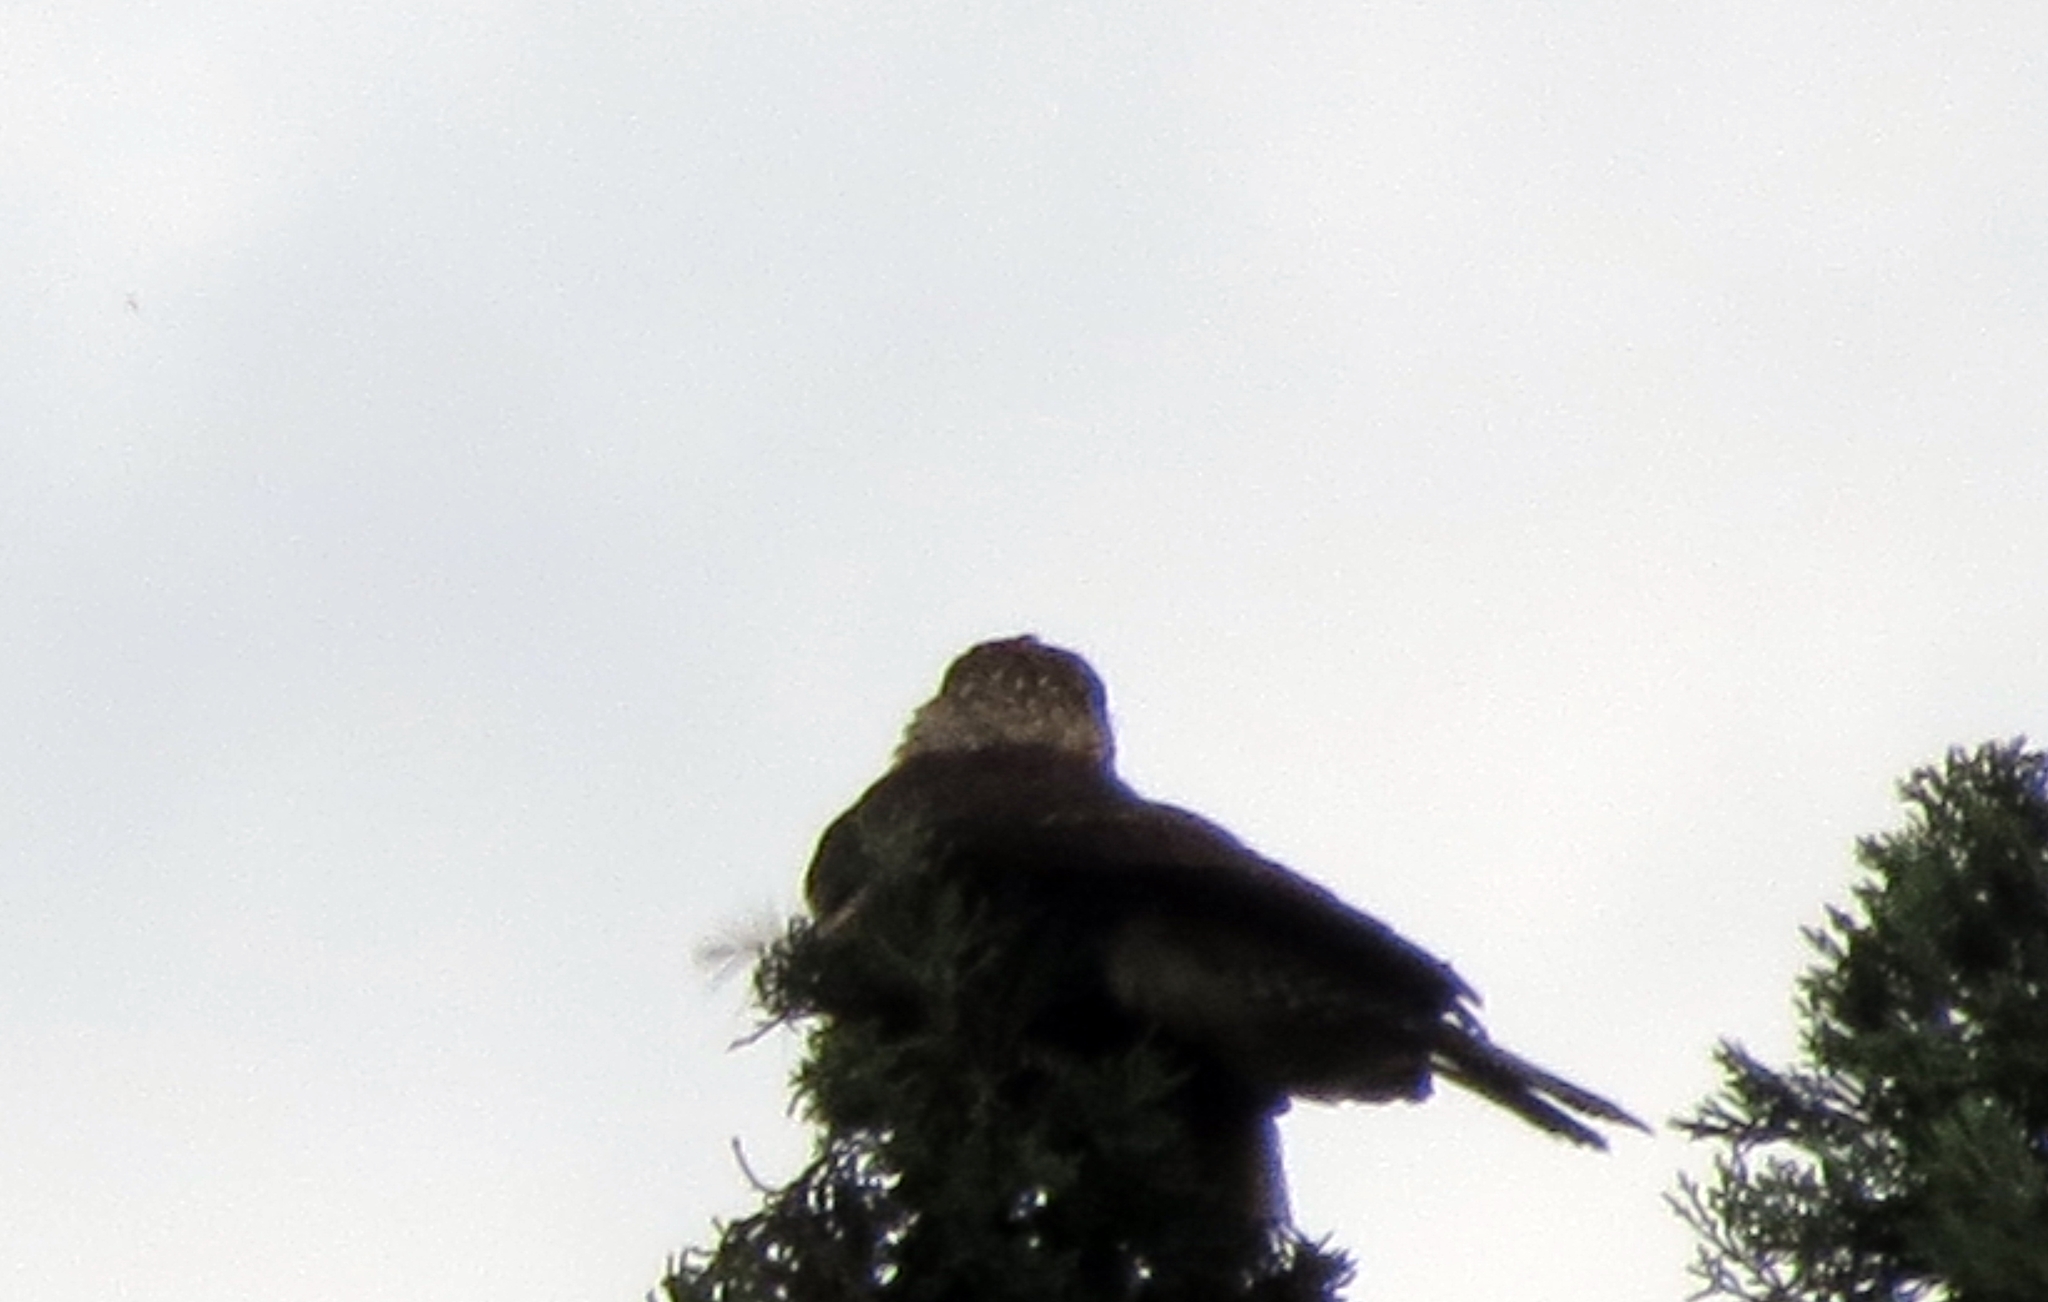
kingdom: Animalia
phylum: Chordata
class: Aves
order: Falconiformes
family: Falconidae
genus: Daptrius
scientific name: Daptrius
